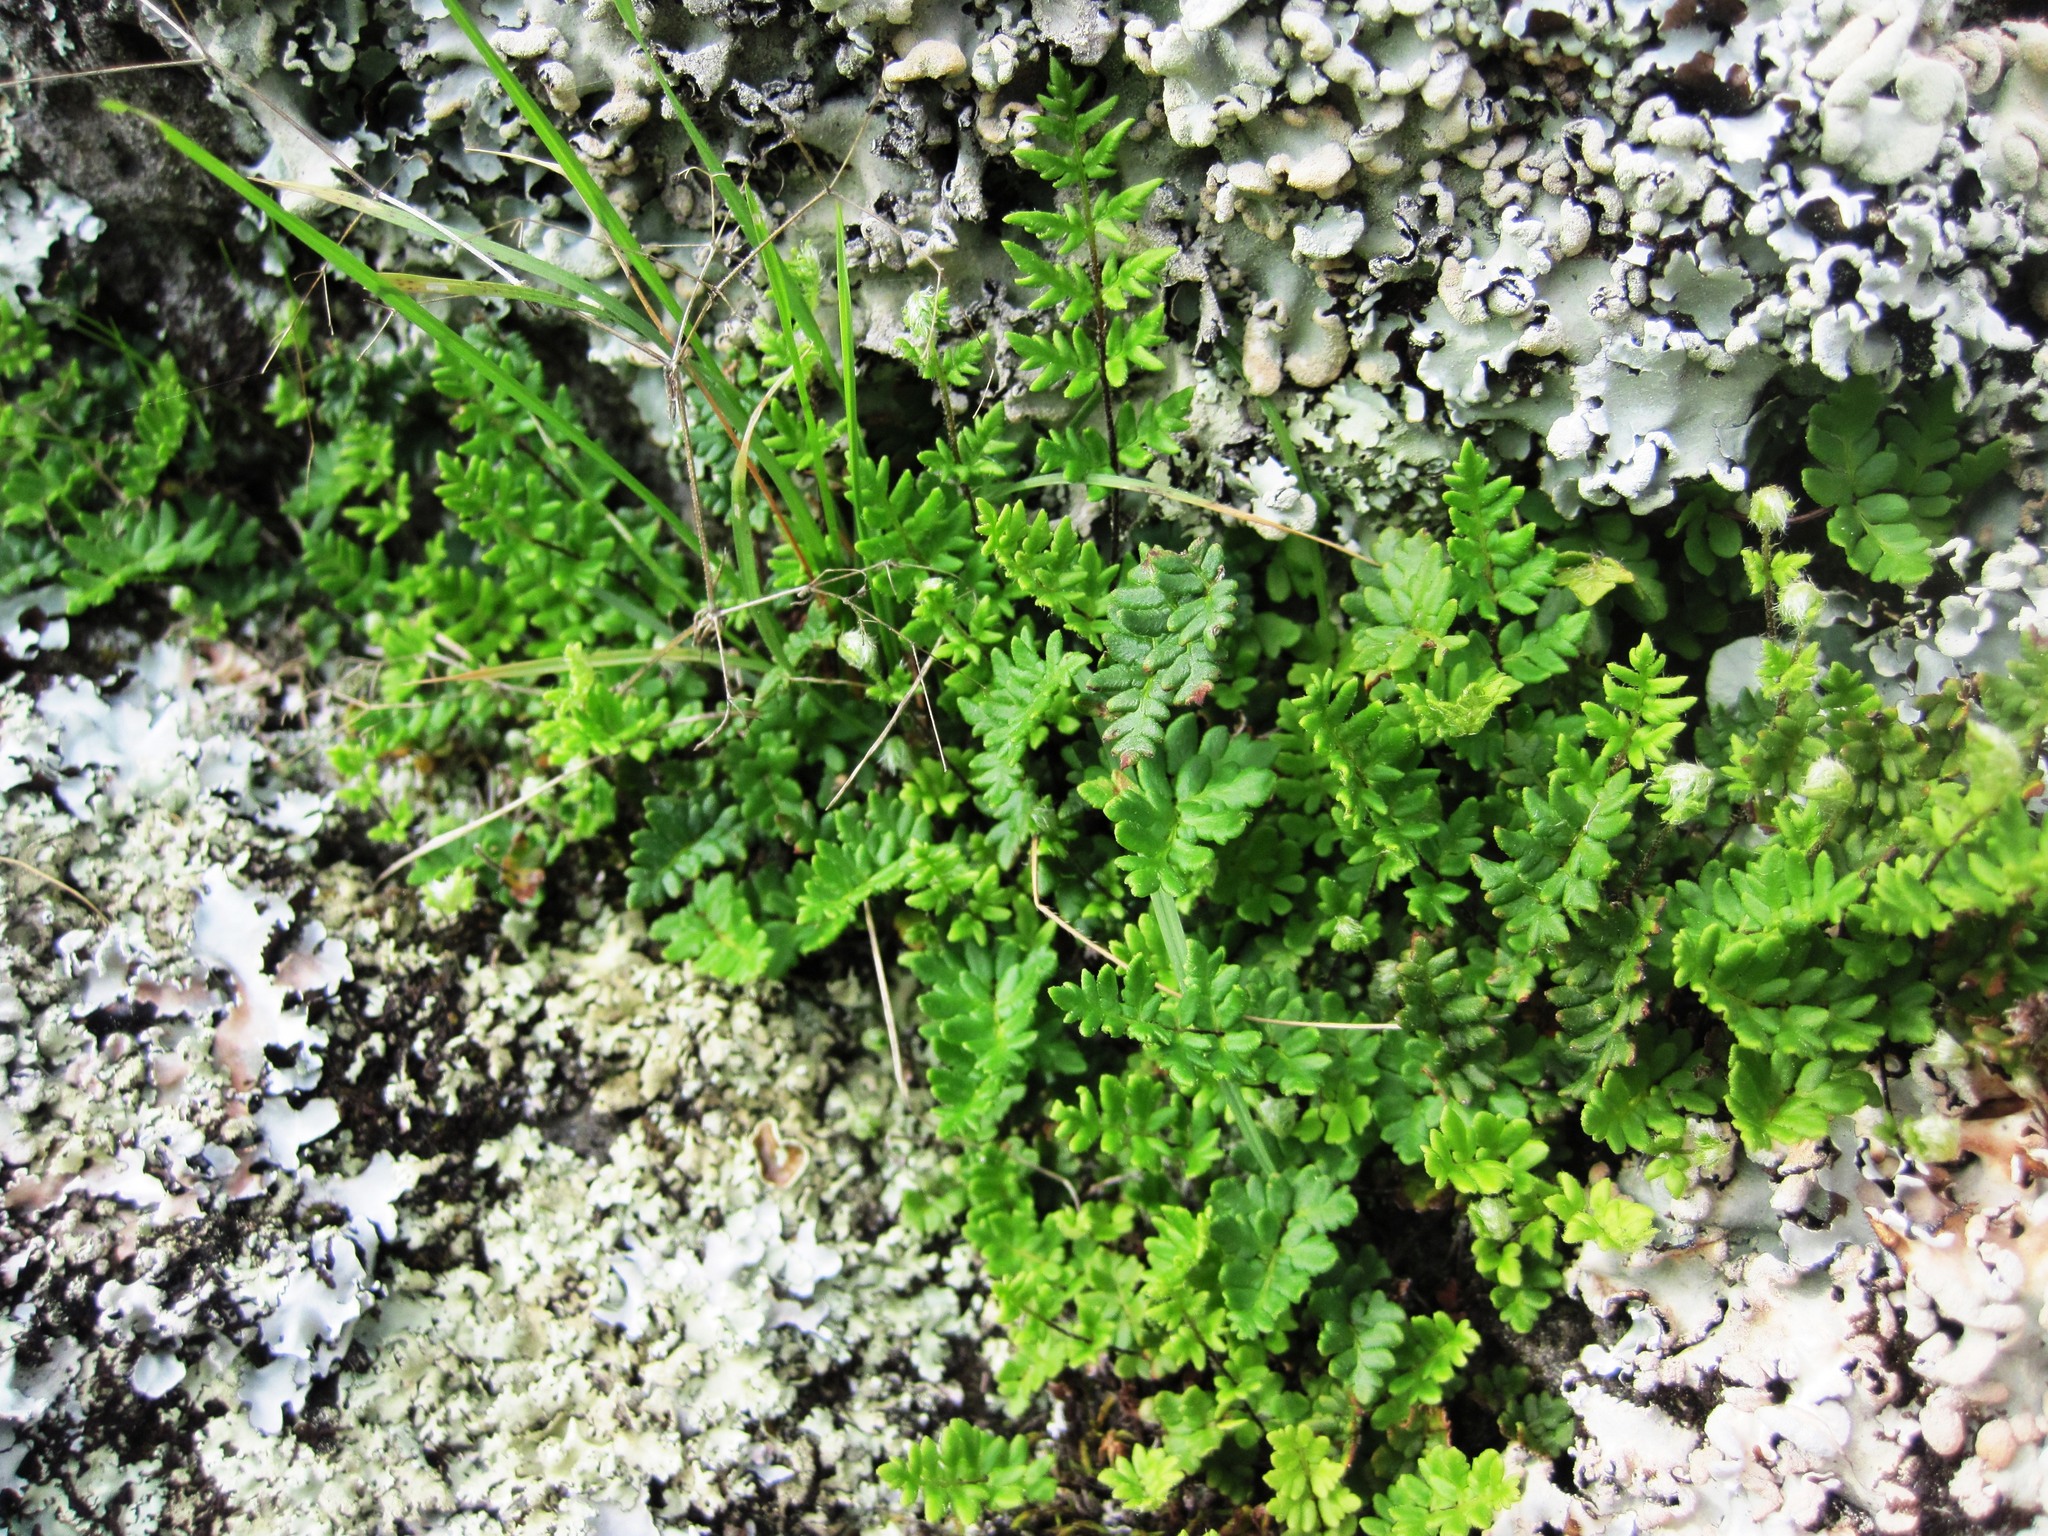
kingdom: Plantae
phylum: Tracheophyta
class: Polypodiopsida
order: Polypodiales
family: Pteridaceae
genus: Cheilanthes
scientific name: Cheilanthes sieberi
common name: Mulga fern
